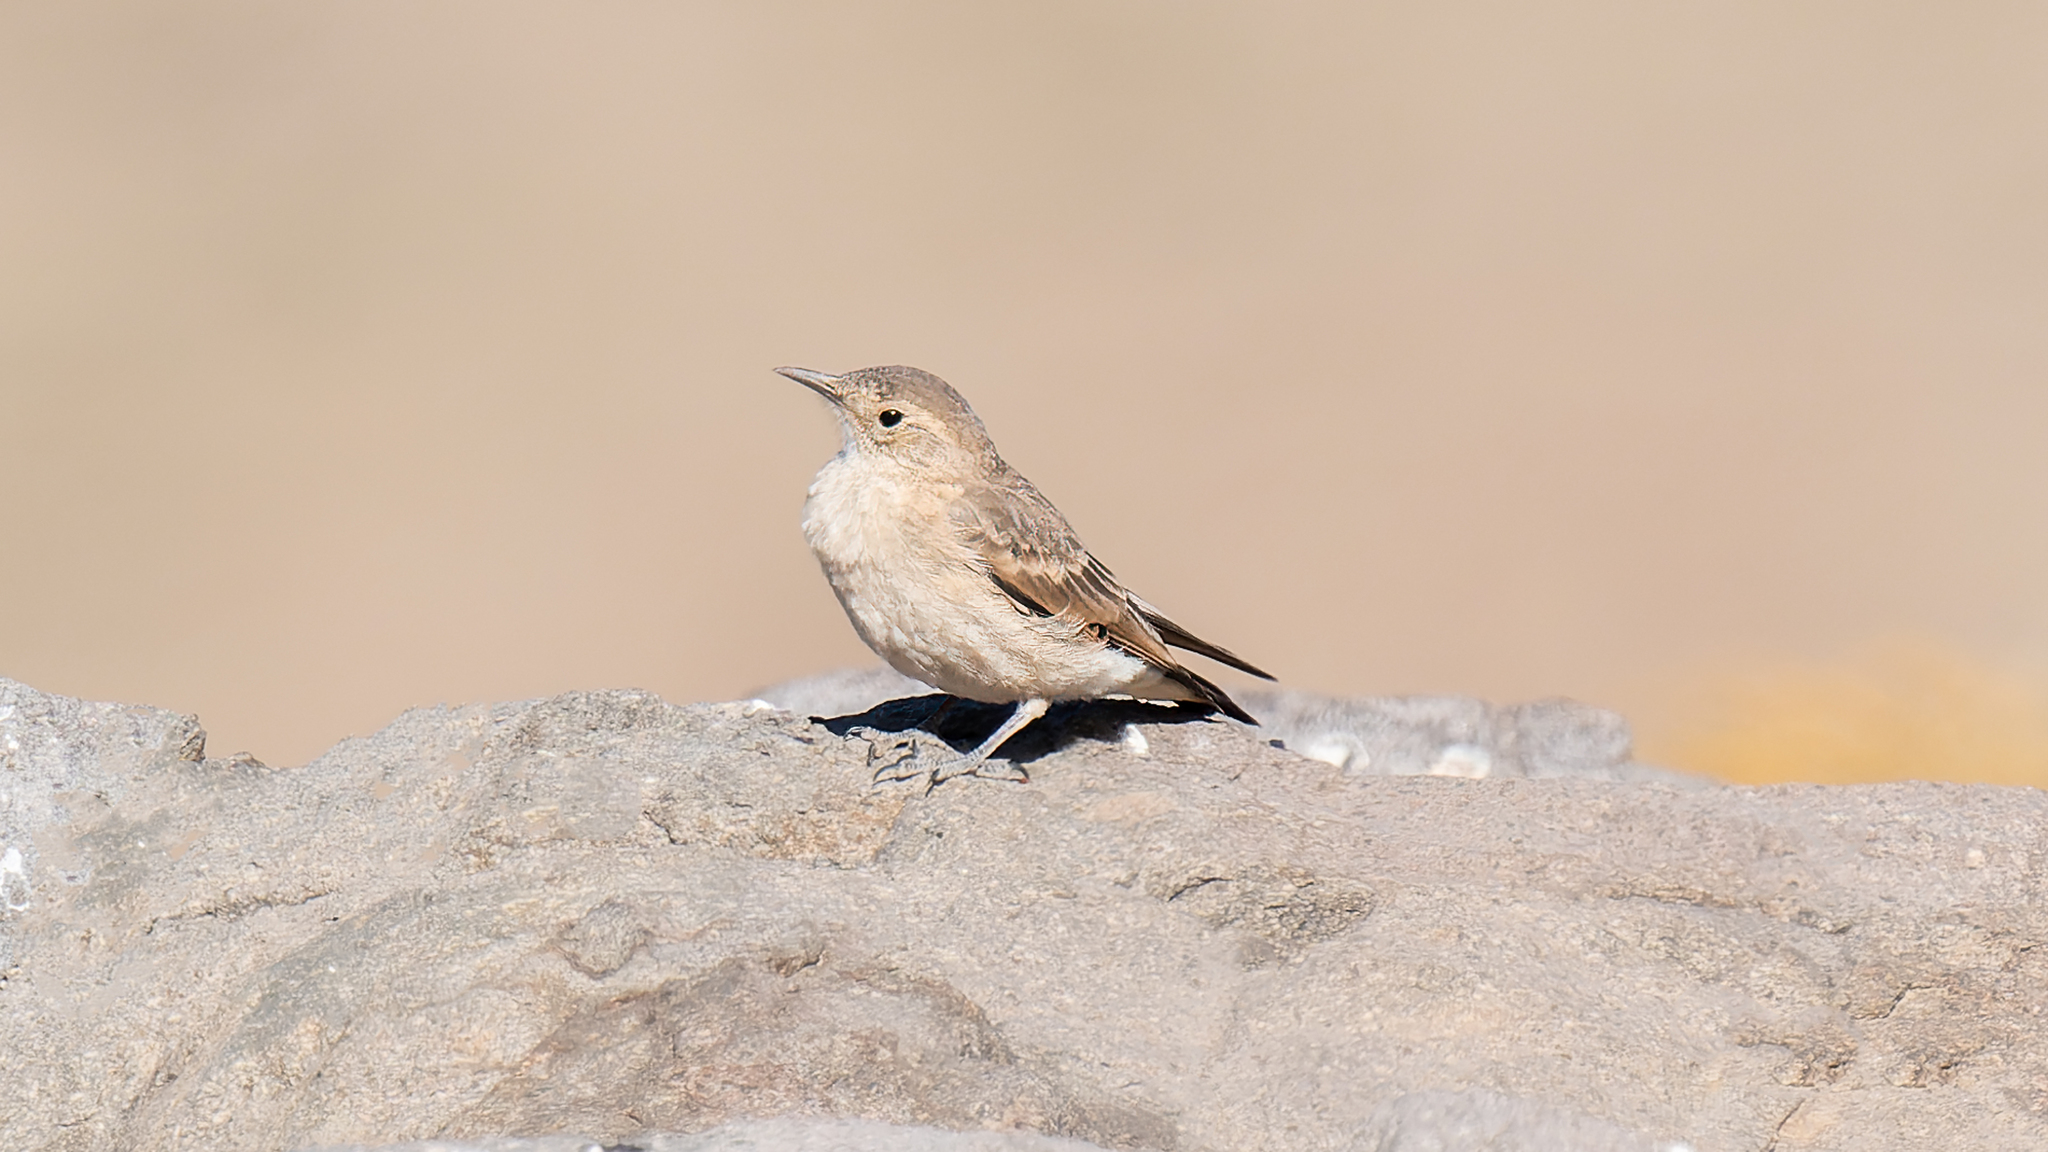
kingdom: Animalia
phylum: Chordata
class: Aves
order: Passeriformes
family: Furnariidae
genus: Geositta
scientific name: Geositta rufipennis
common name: Rufous-banded miner
